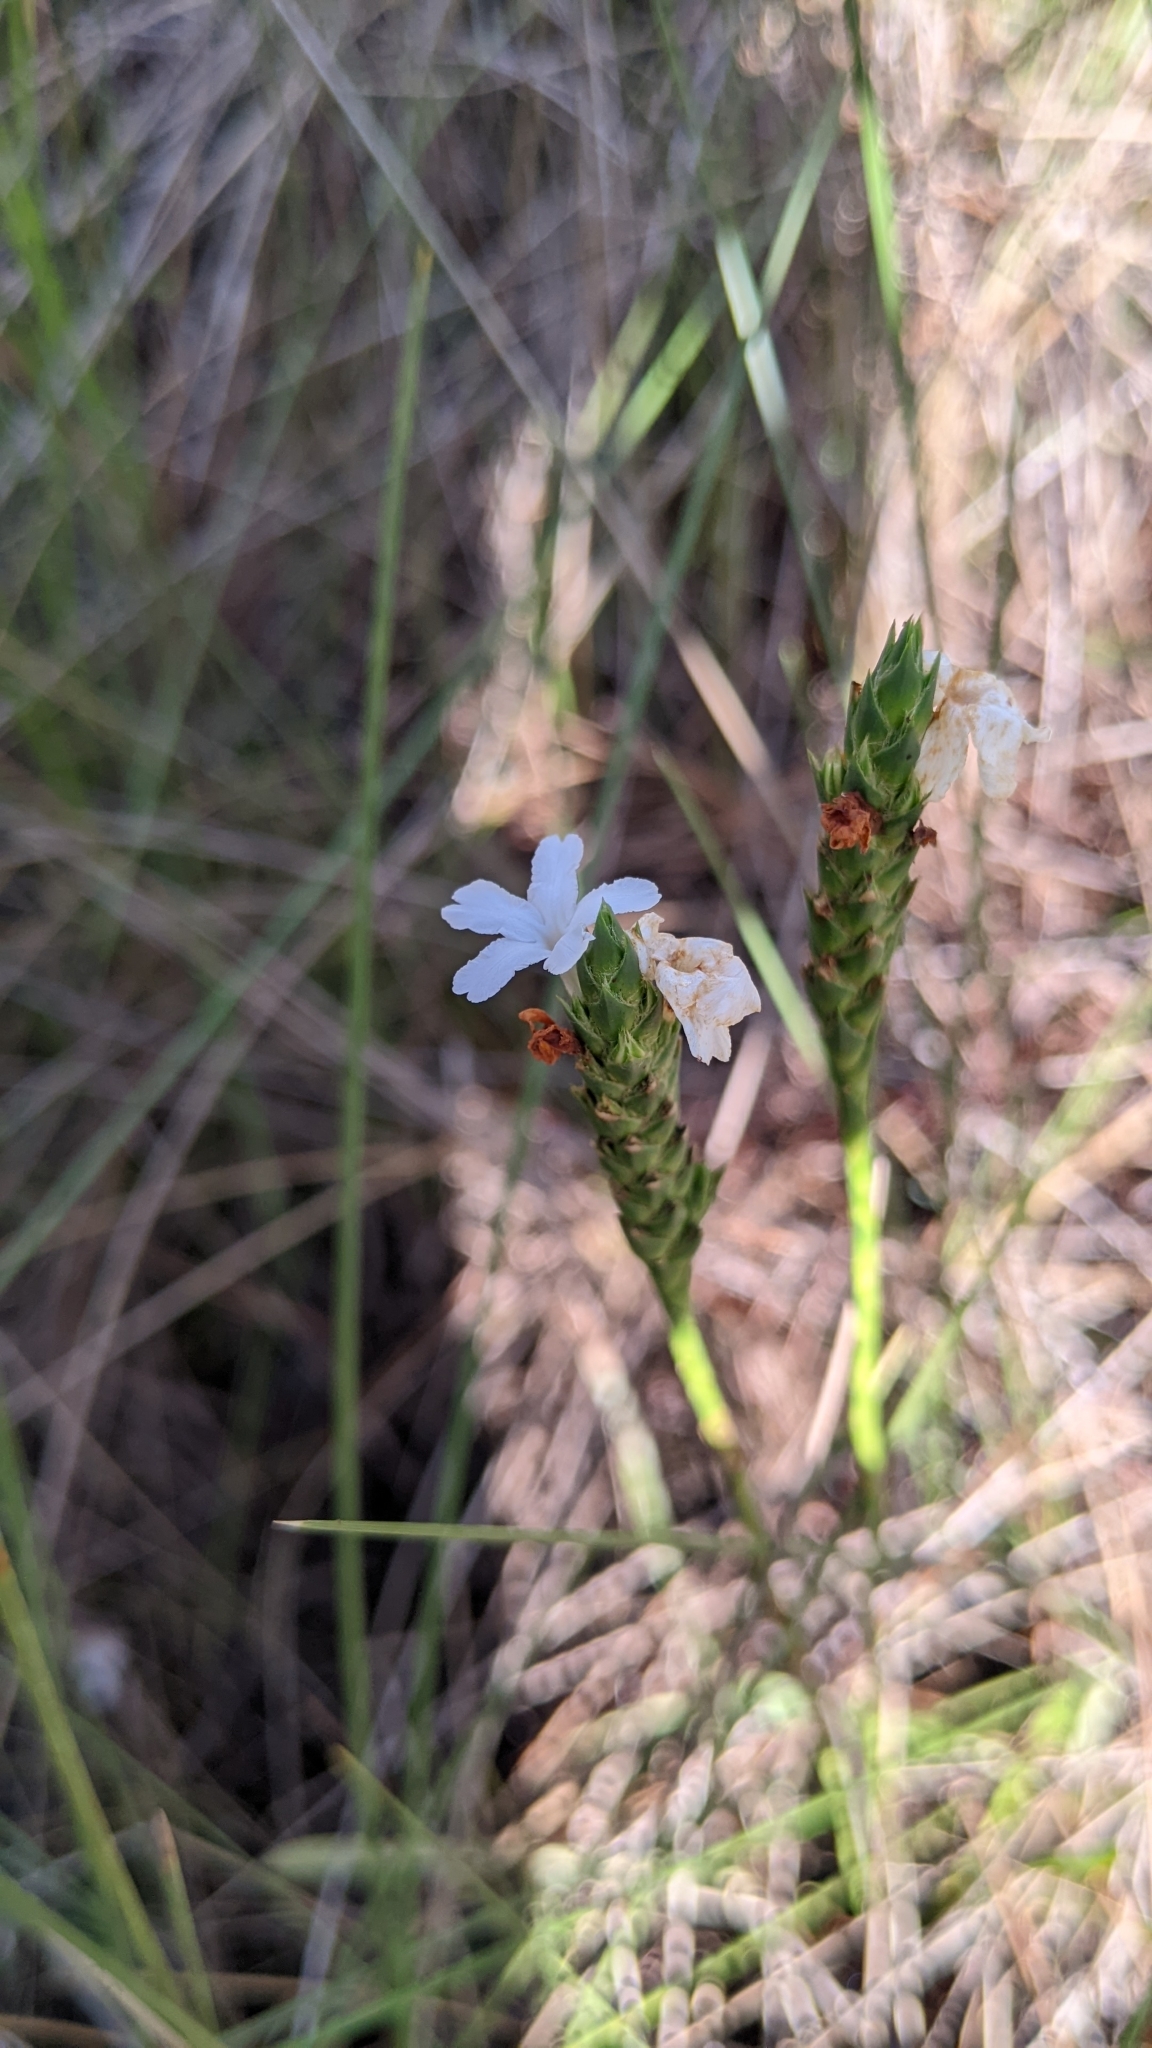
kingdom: Plantae
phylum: Tracheophyta
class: Magnoliopsida
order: Lamiales
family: Acanthaceae
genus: Elytraria
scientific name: Elytraria caroliniensis
